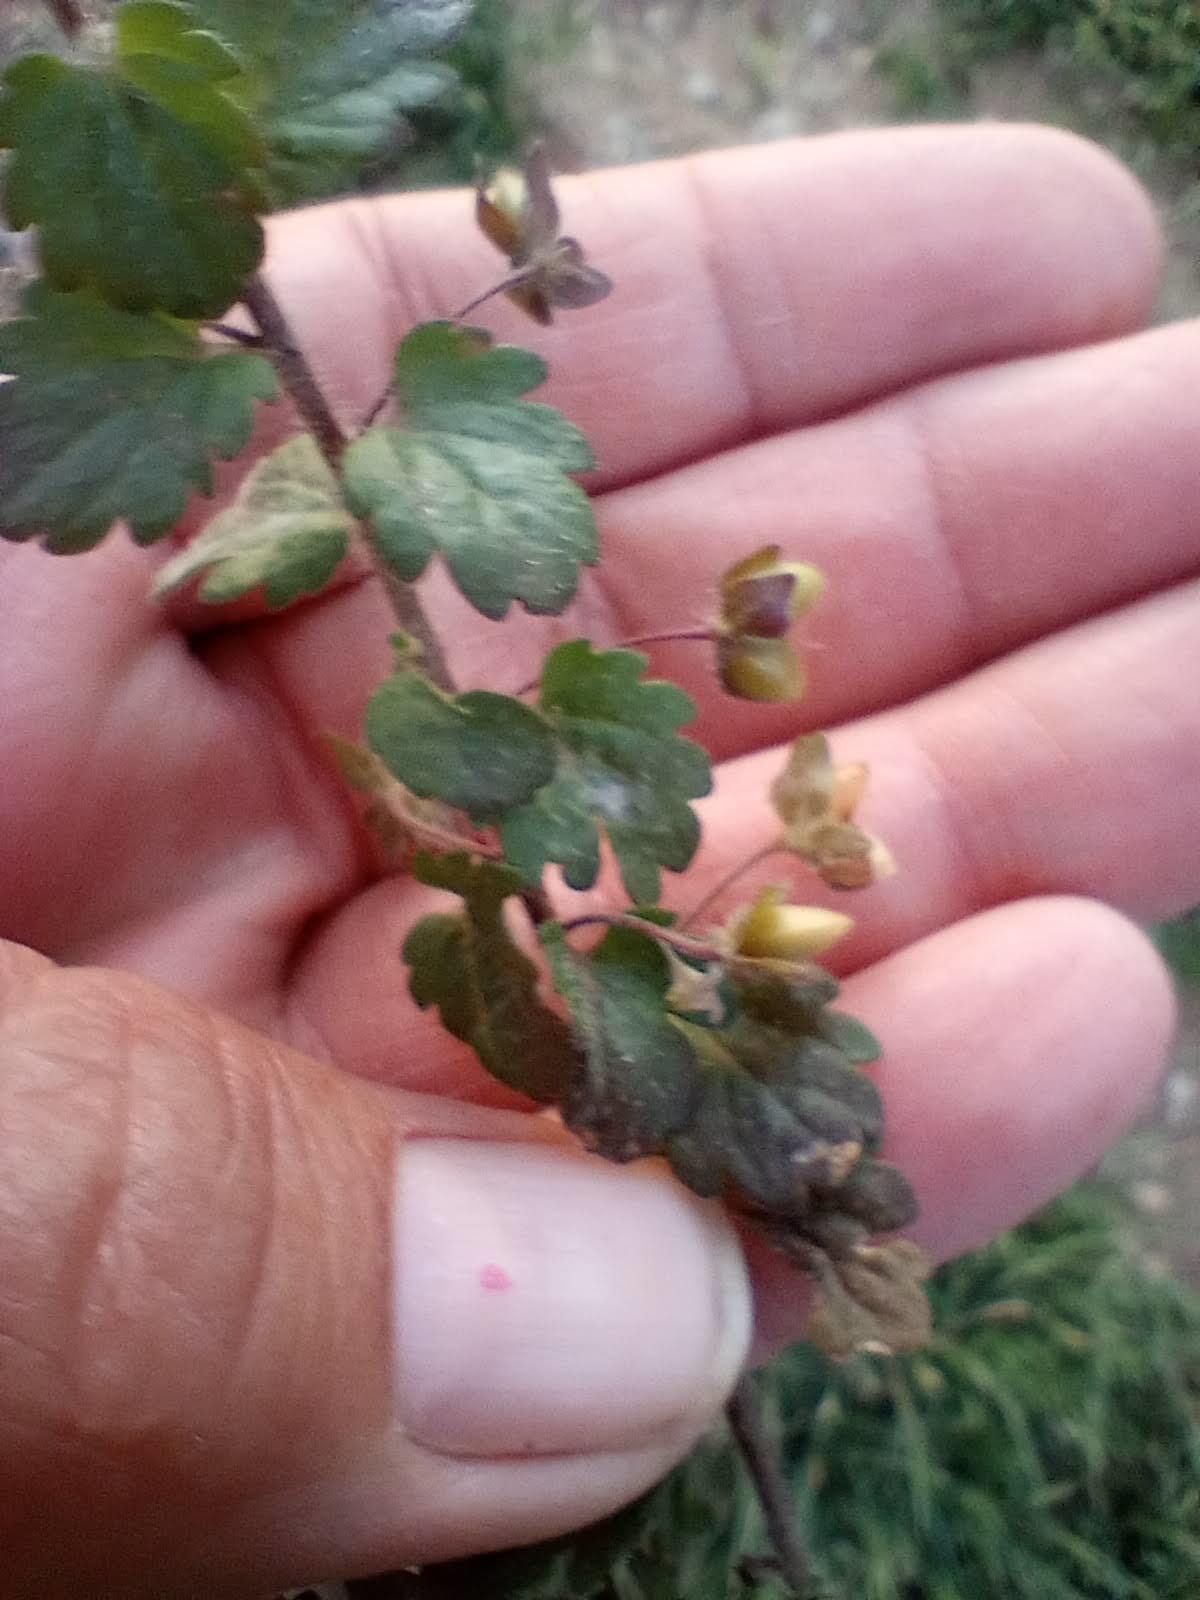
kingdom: Plantae
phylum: Tracheophyta
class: Magnoliopsida
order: Lamiales
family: Plantaginaceae
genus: Veronica
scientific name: Veronica persica
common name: Common field-speedwell
